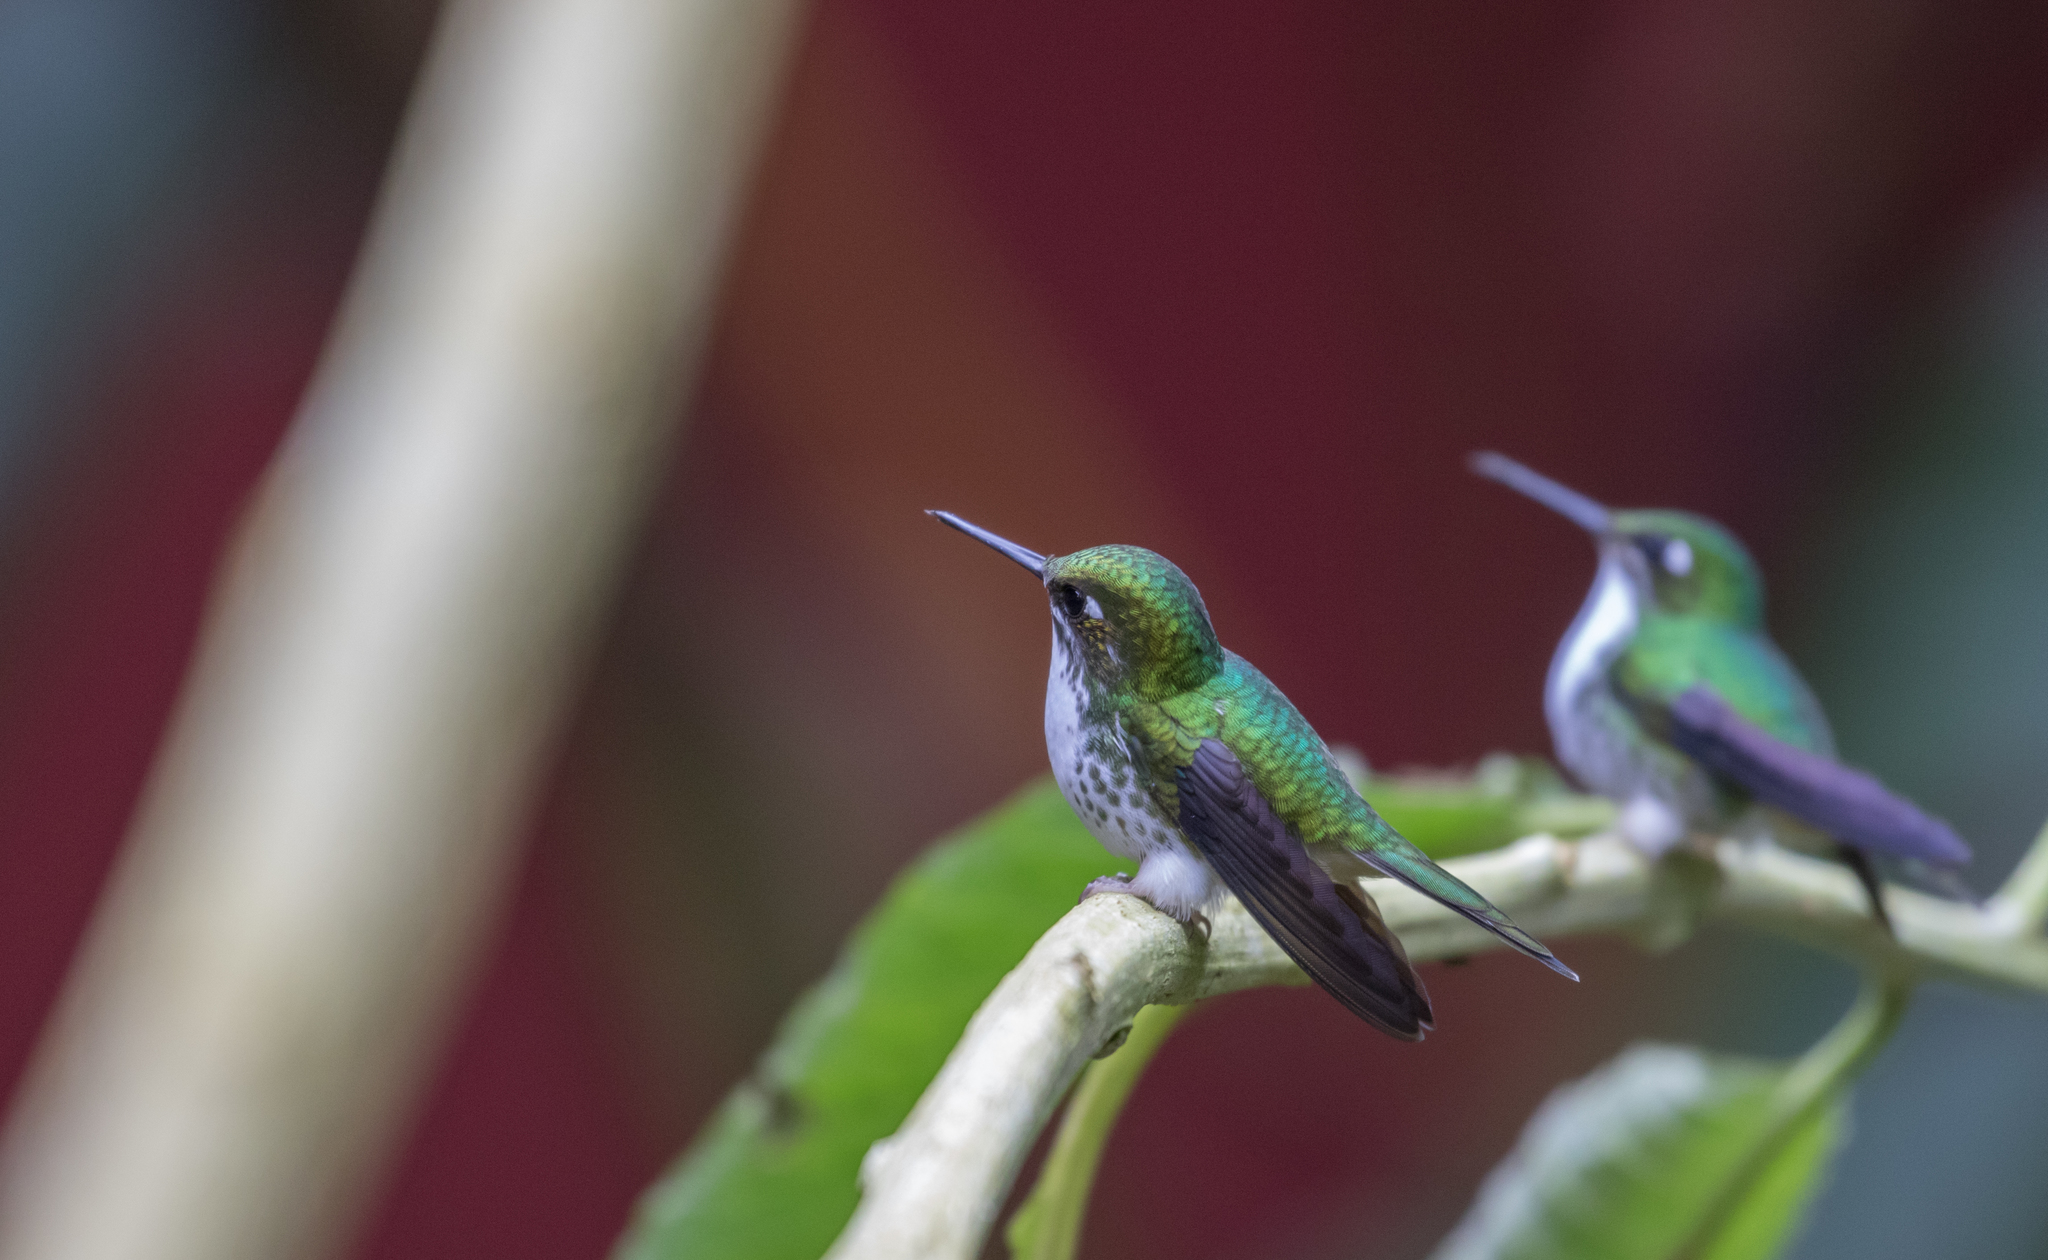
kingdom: Animalia
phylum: Chordata
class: Aves
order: Apodiformes
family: Trochilidae
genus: Ocreatus
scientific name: Ocreatus underwoodii
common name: Booted racket-tail
